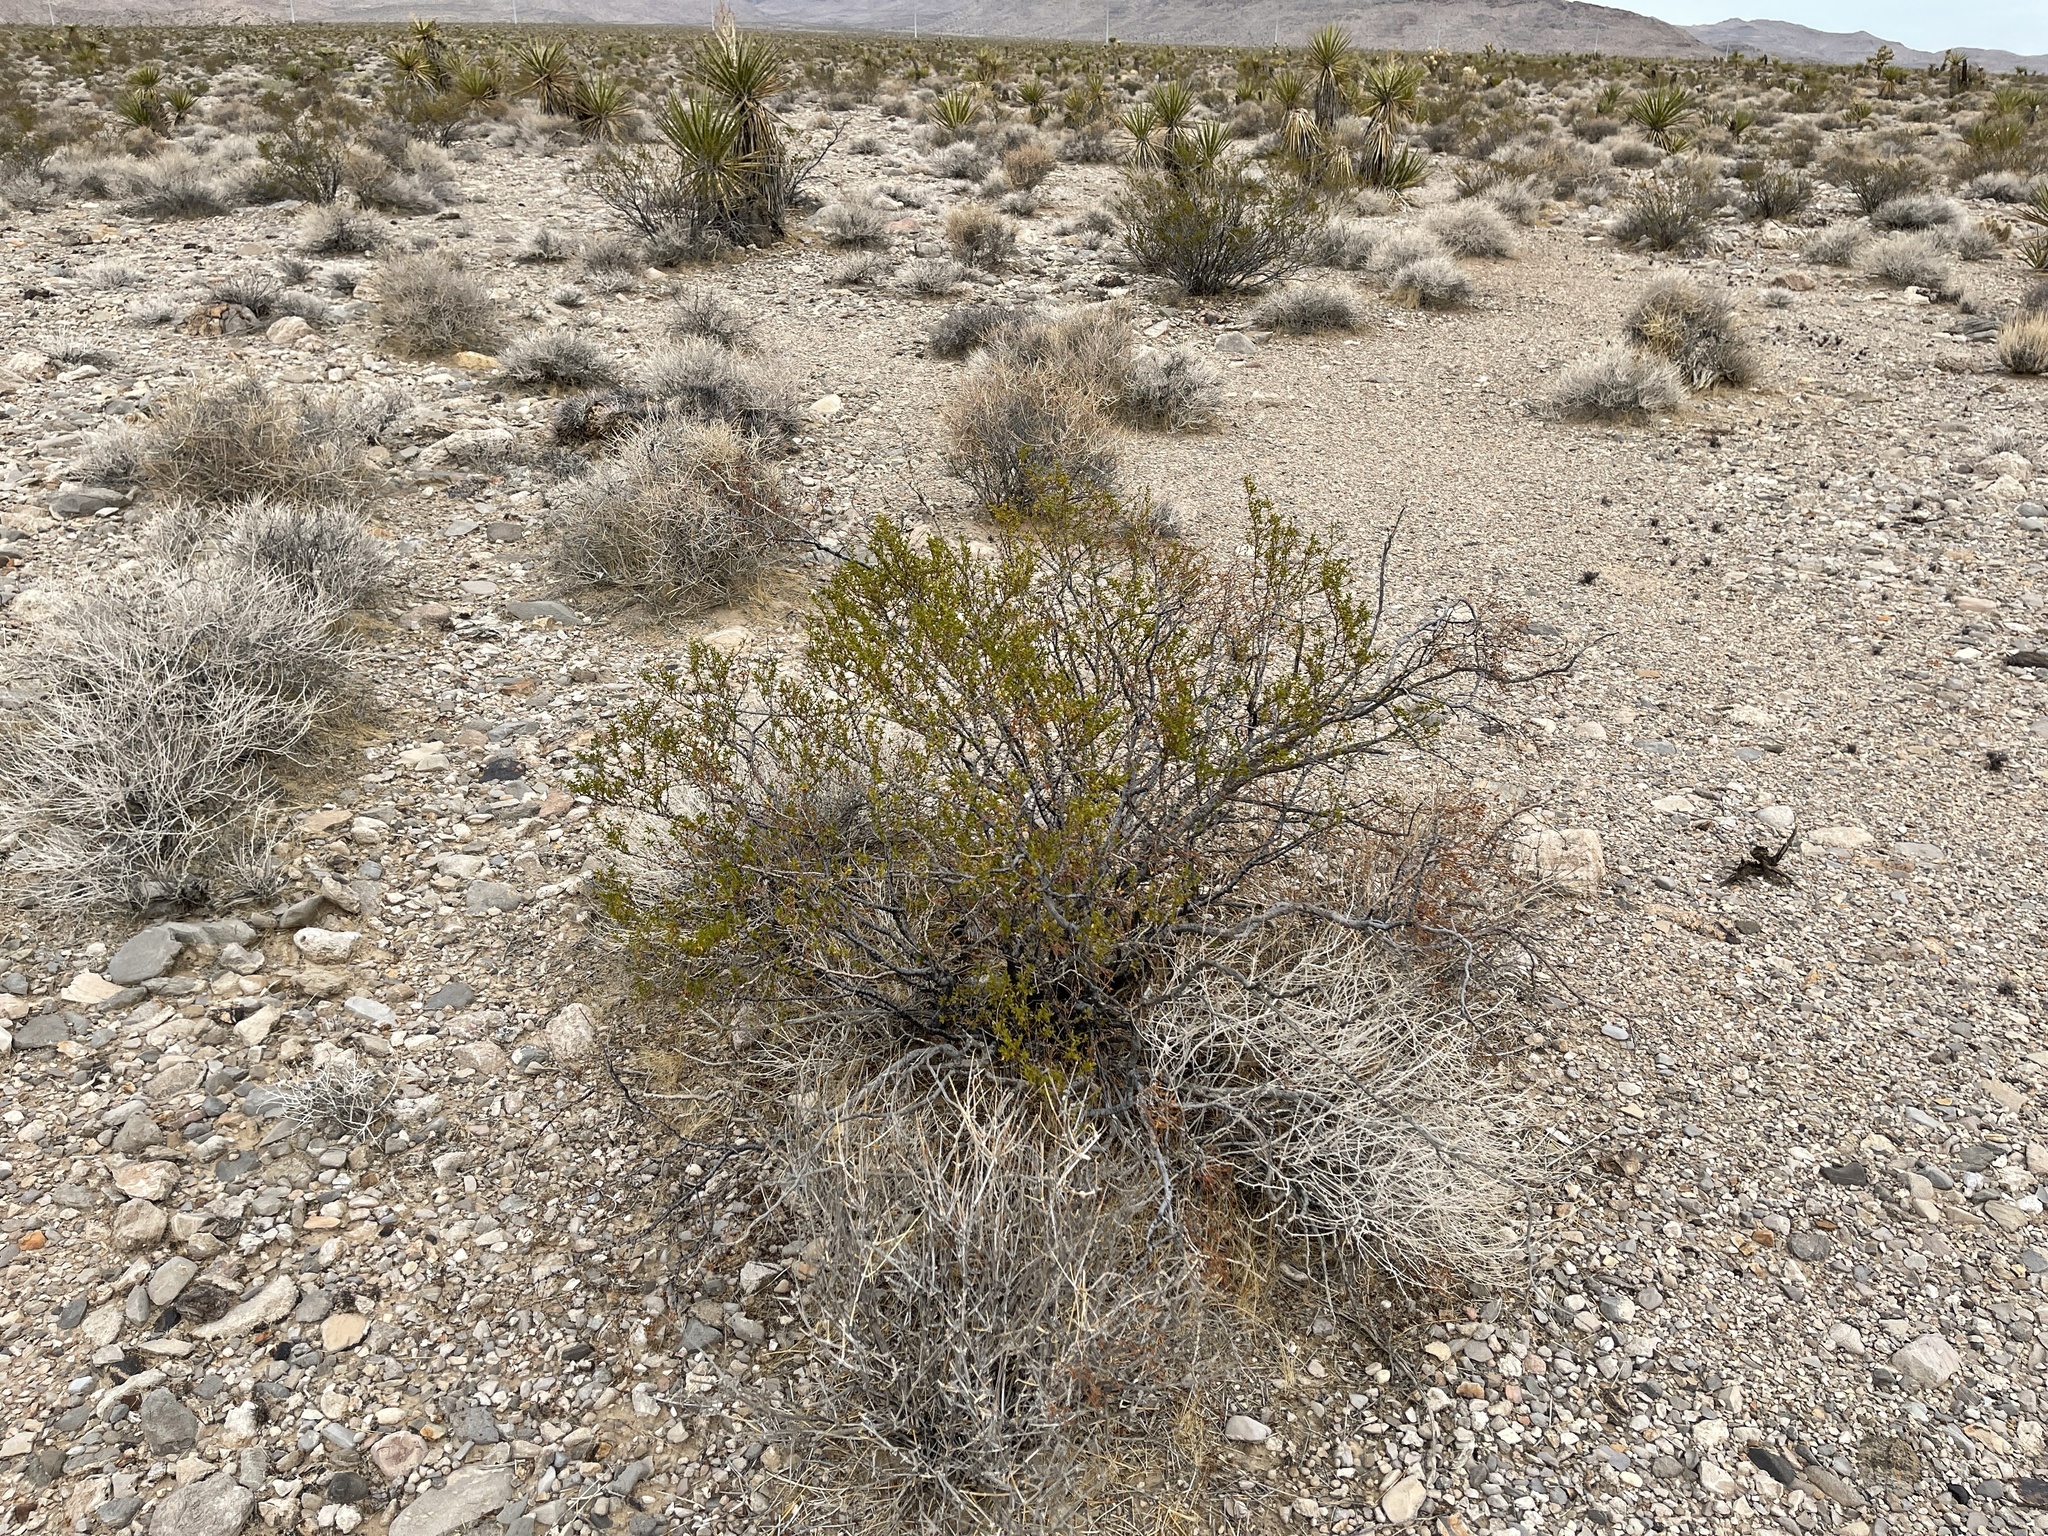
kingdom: Plantae
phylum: Tracheophyta
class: Magnoliopsida
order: Zygophyllales
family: Zygophyllaceae
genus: Larrea
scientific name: Larrea tridentata
